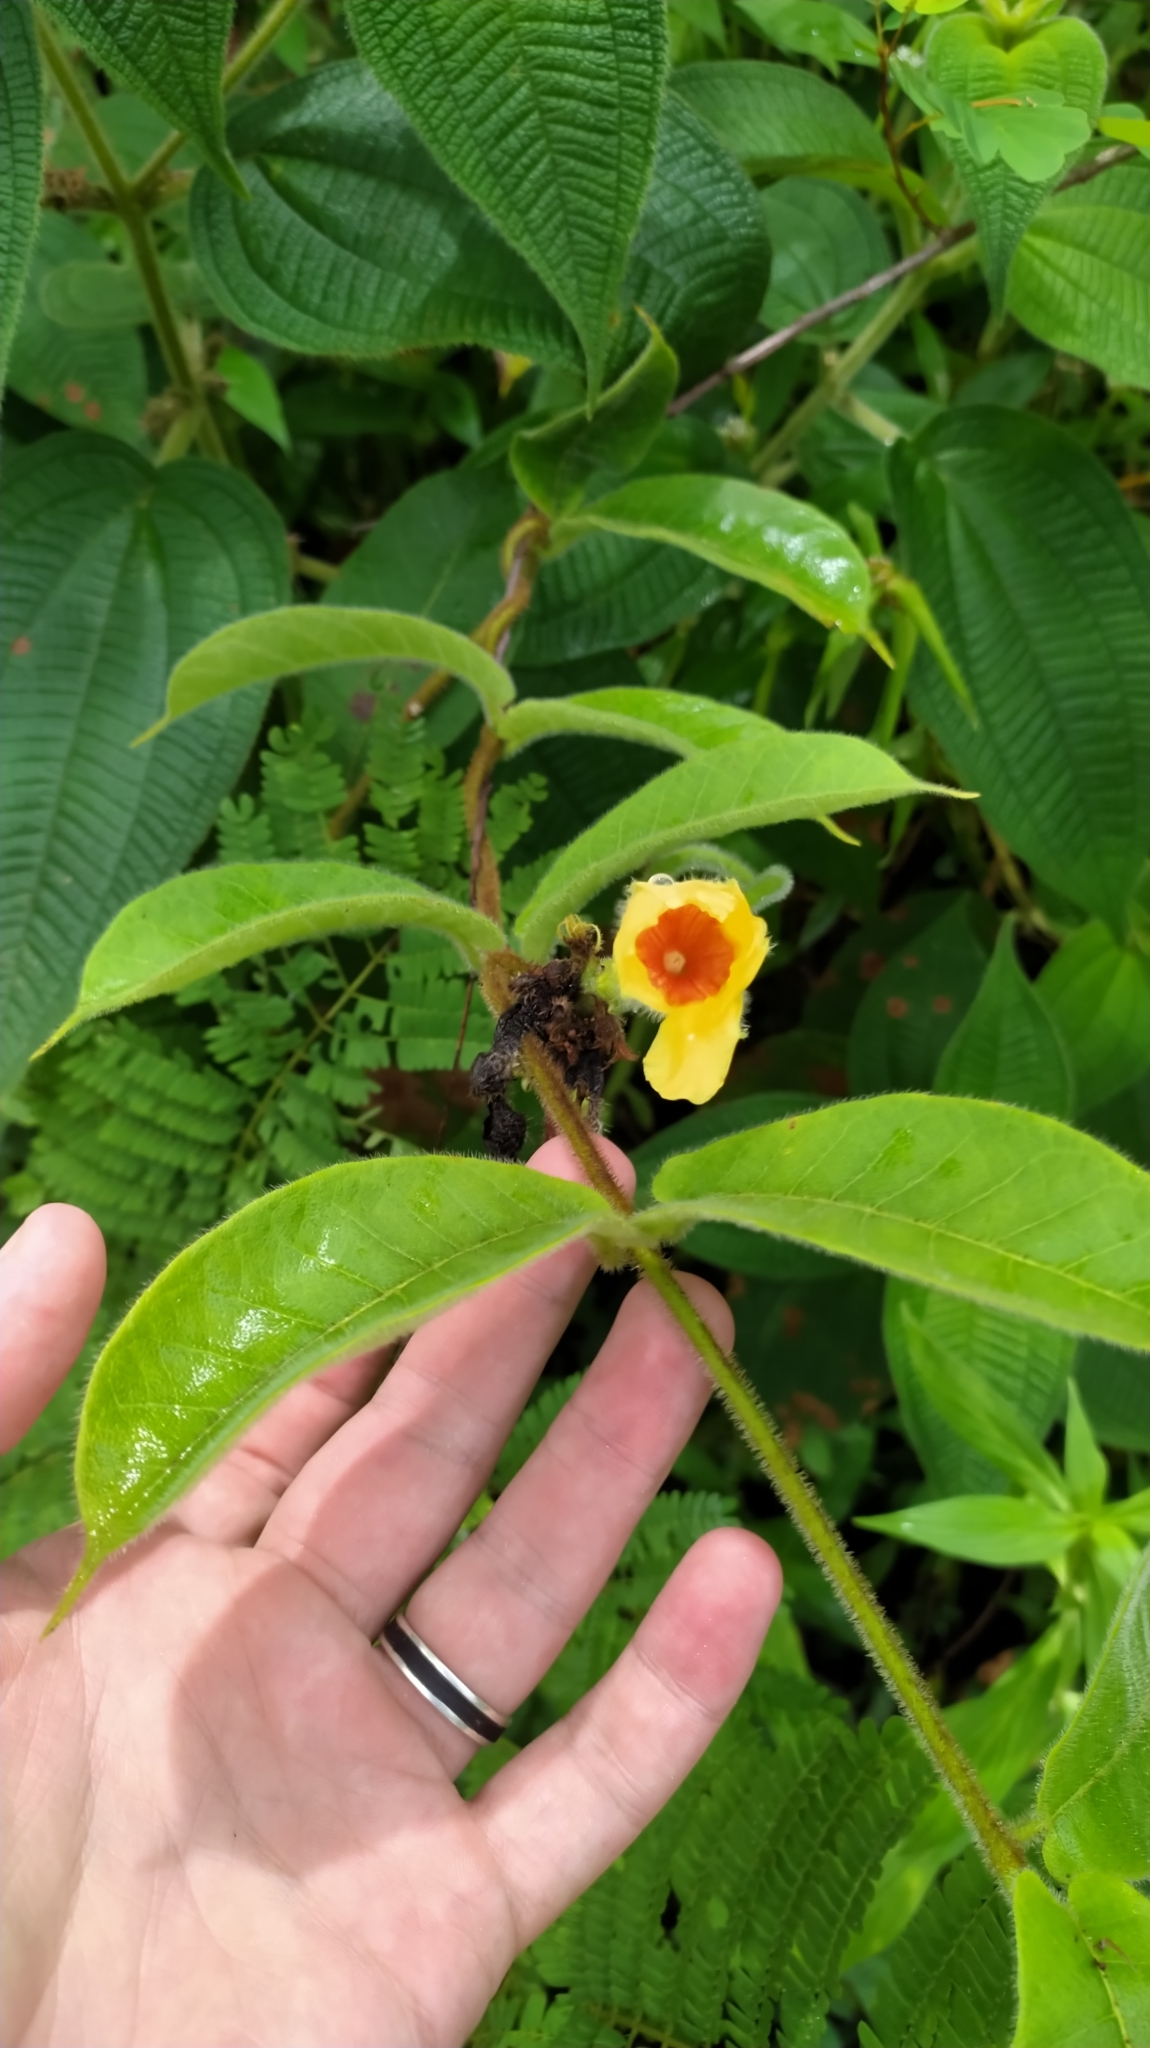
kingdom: Plantae
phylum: Tracheophyta
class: Magnoliopsida
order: Gentianales
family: Apocynaceae
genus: Mandevilla
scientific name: Mandevilla hirsuta
